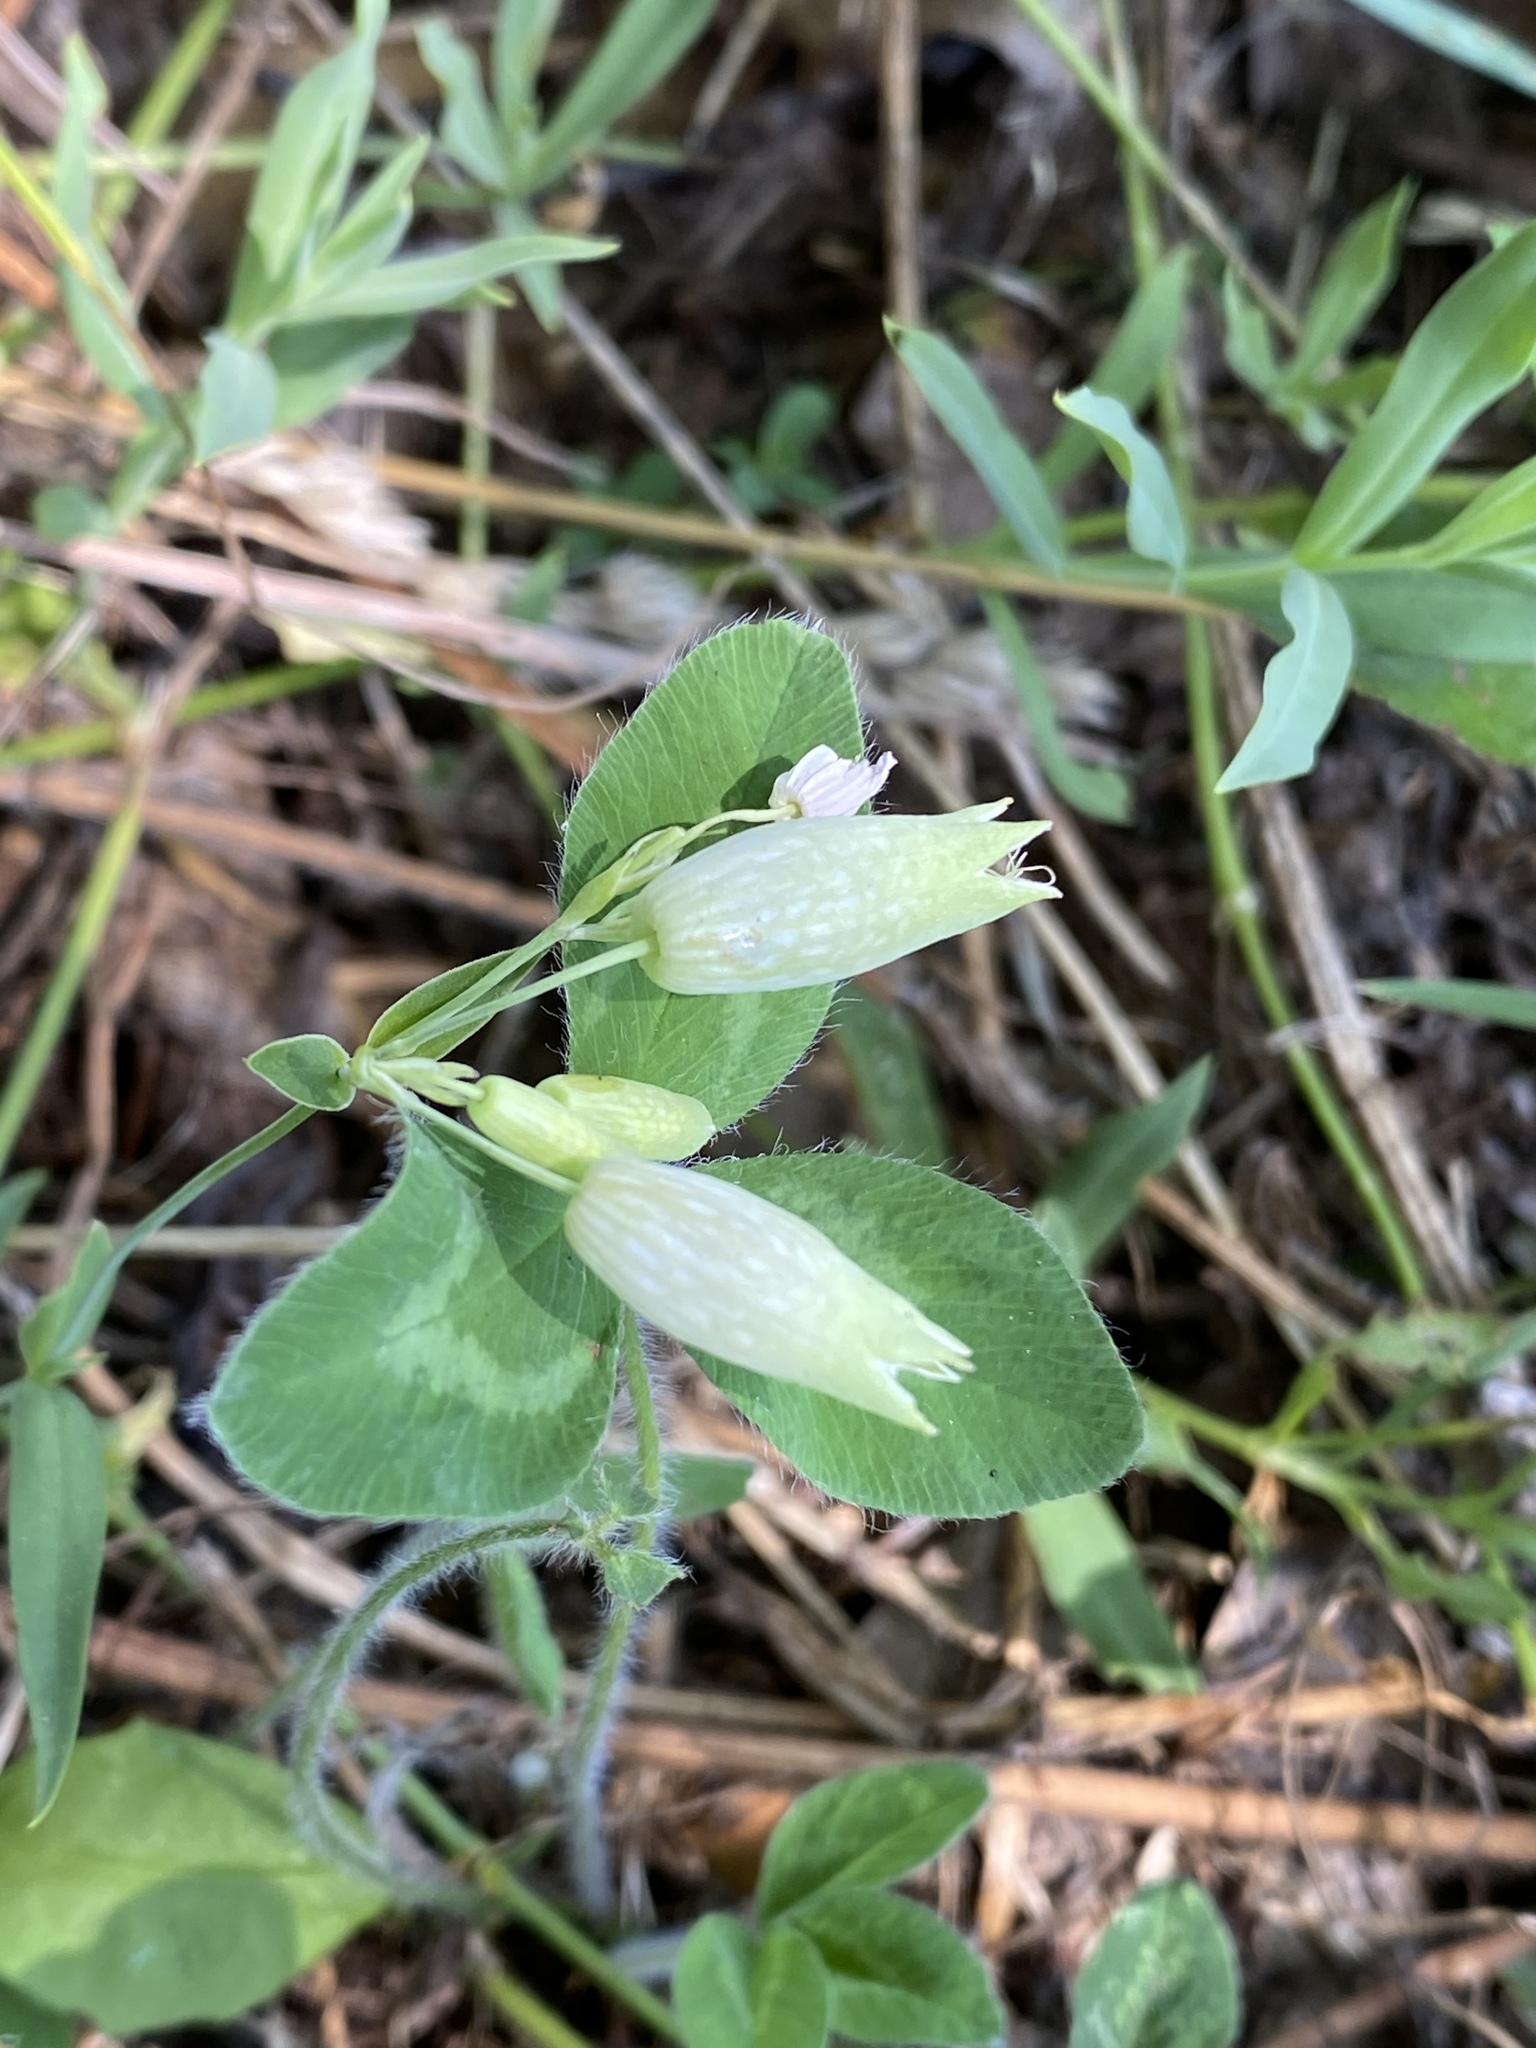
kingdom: Plantae
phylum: Tracheophyta
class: Magnoliopsida
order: Caryophyllales
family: Caryophyllaceae
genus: Silene
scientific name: Silene vulgaris
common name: Bladder campion
